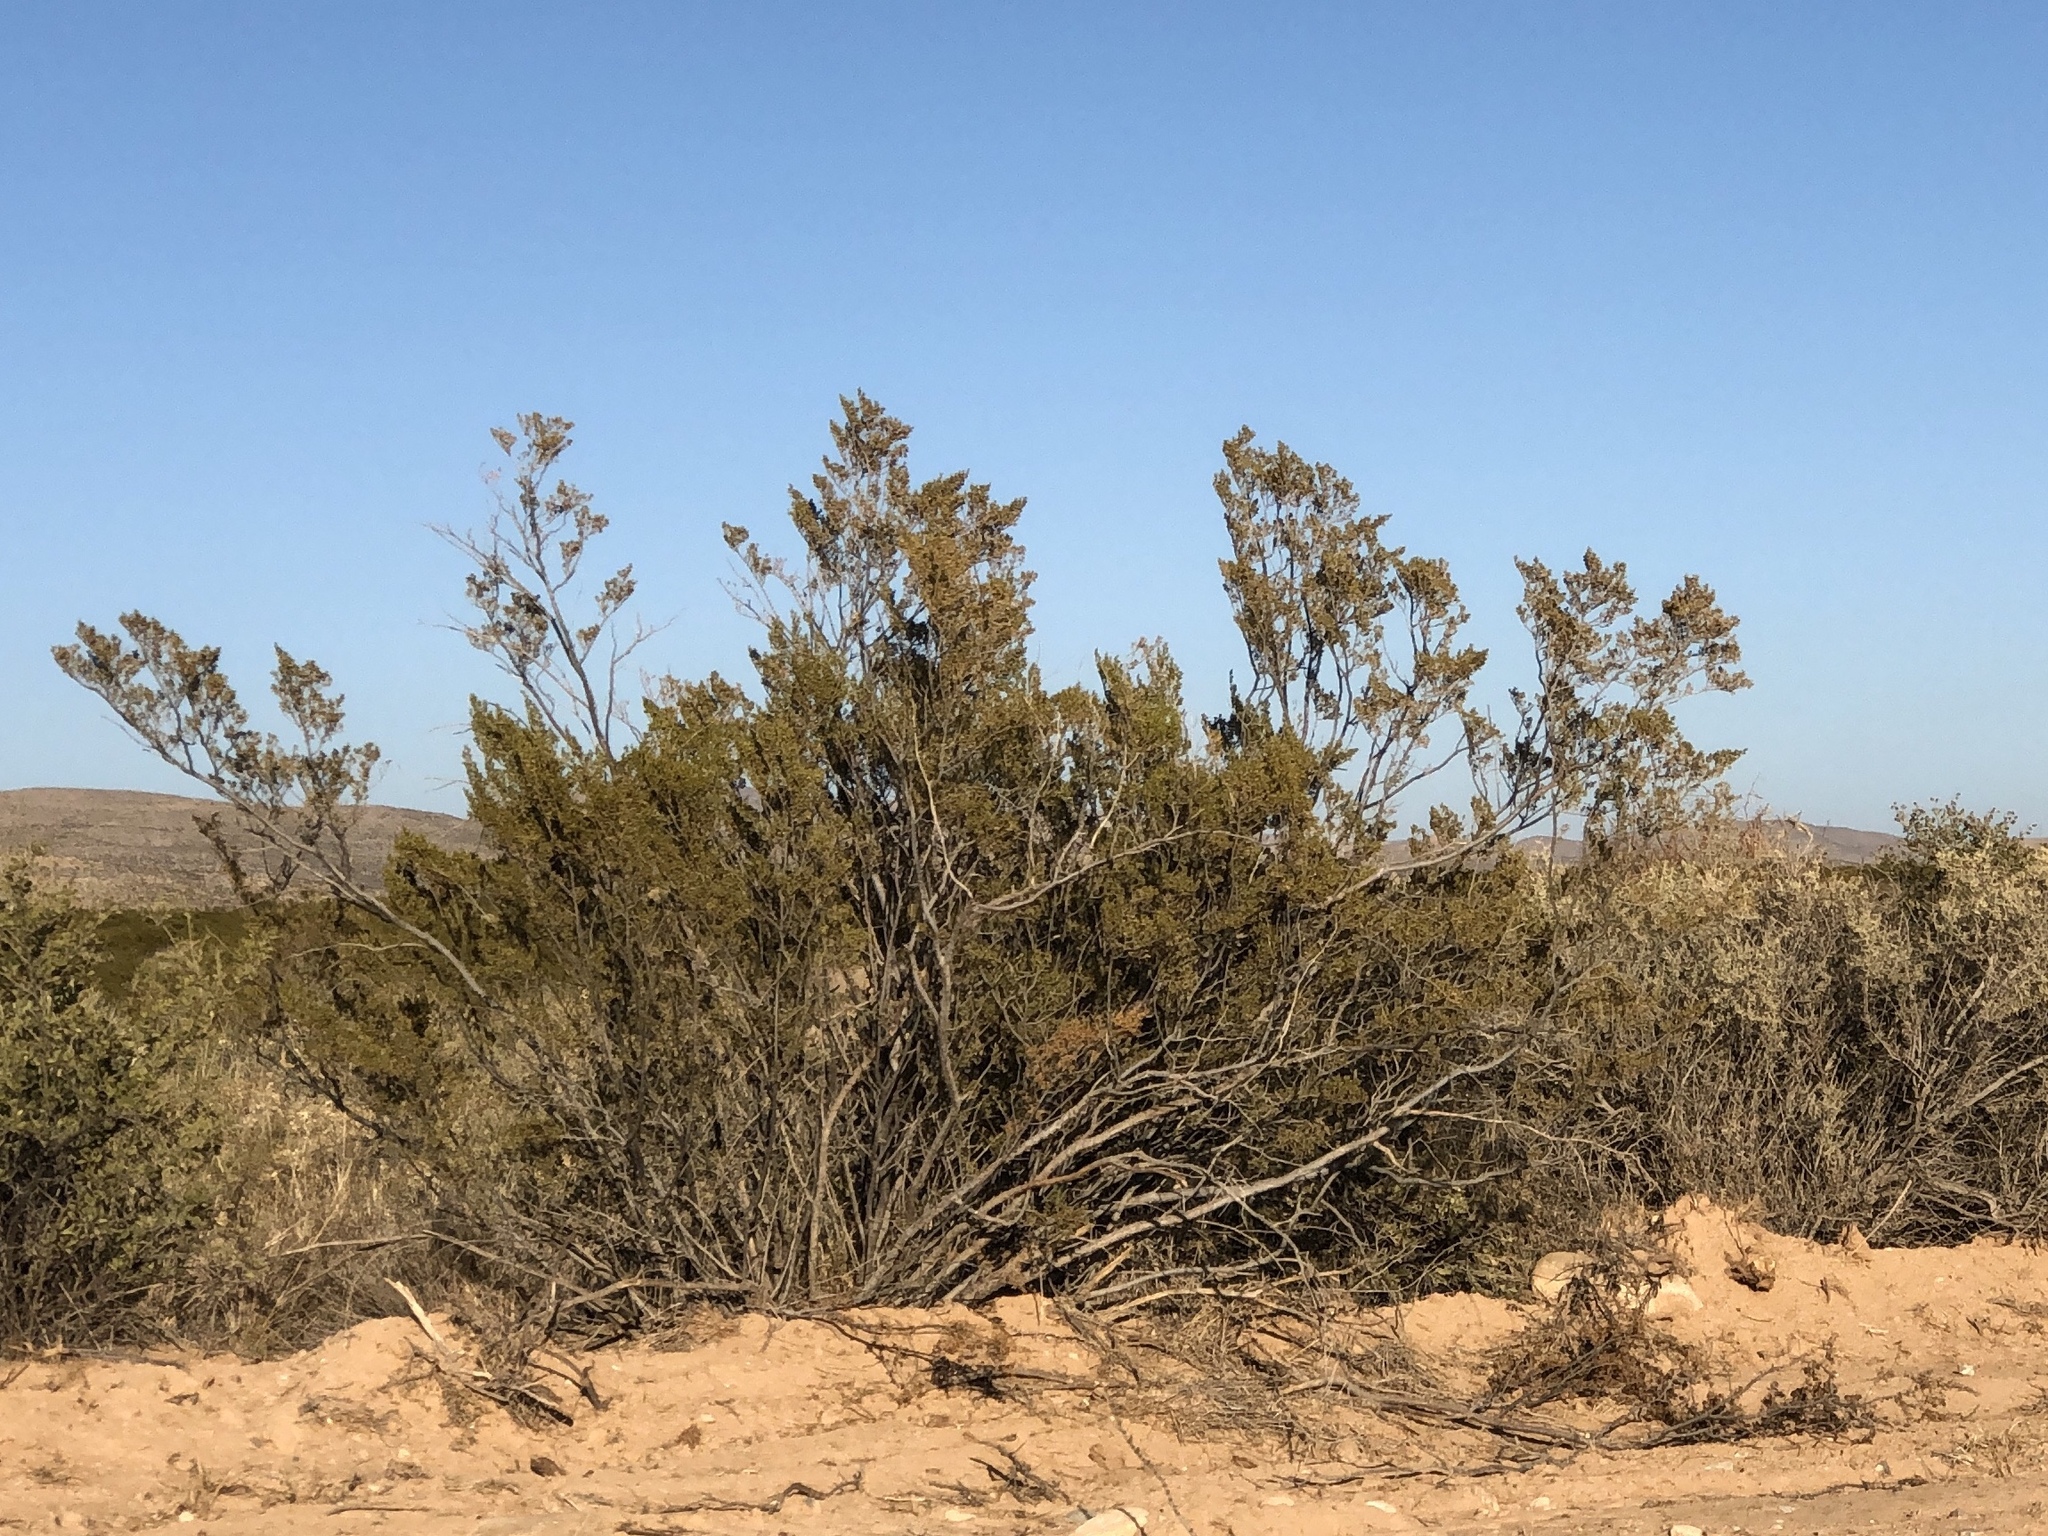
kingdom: Plantae
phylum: Tracheophyta
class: Magnoliopsida
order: Zygophyllales
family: Zygophyllaceae
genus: Larrea
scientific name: Larrea tridentata
